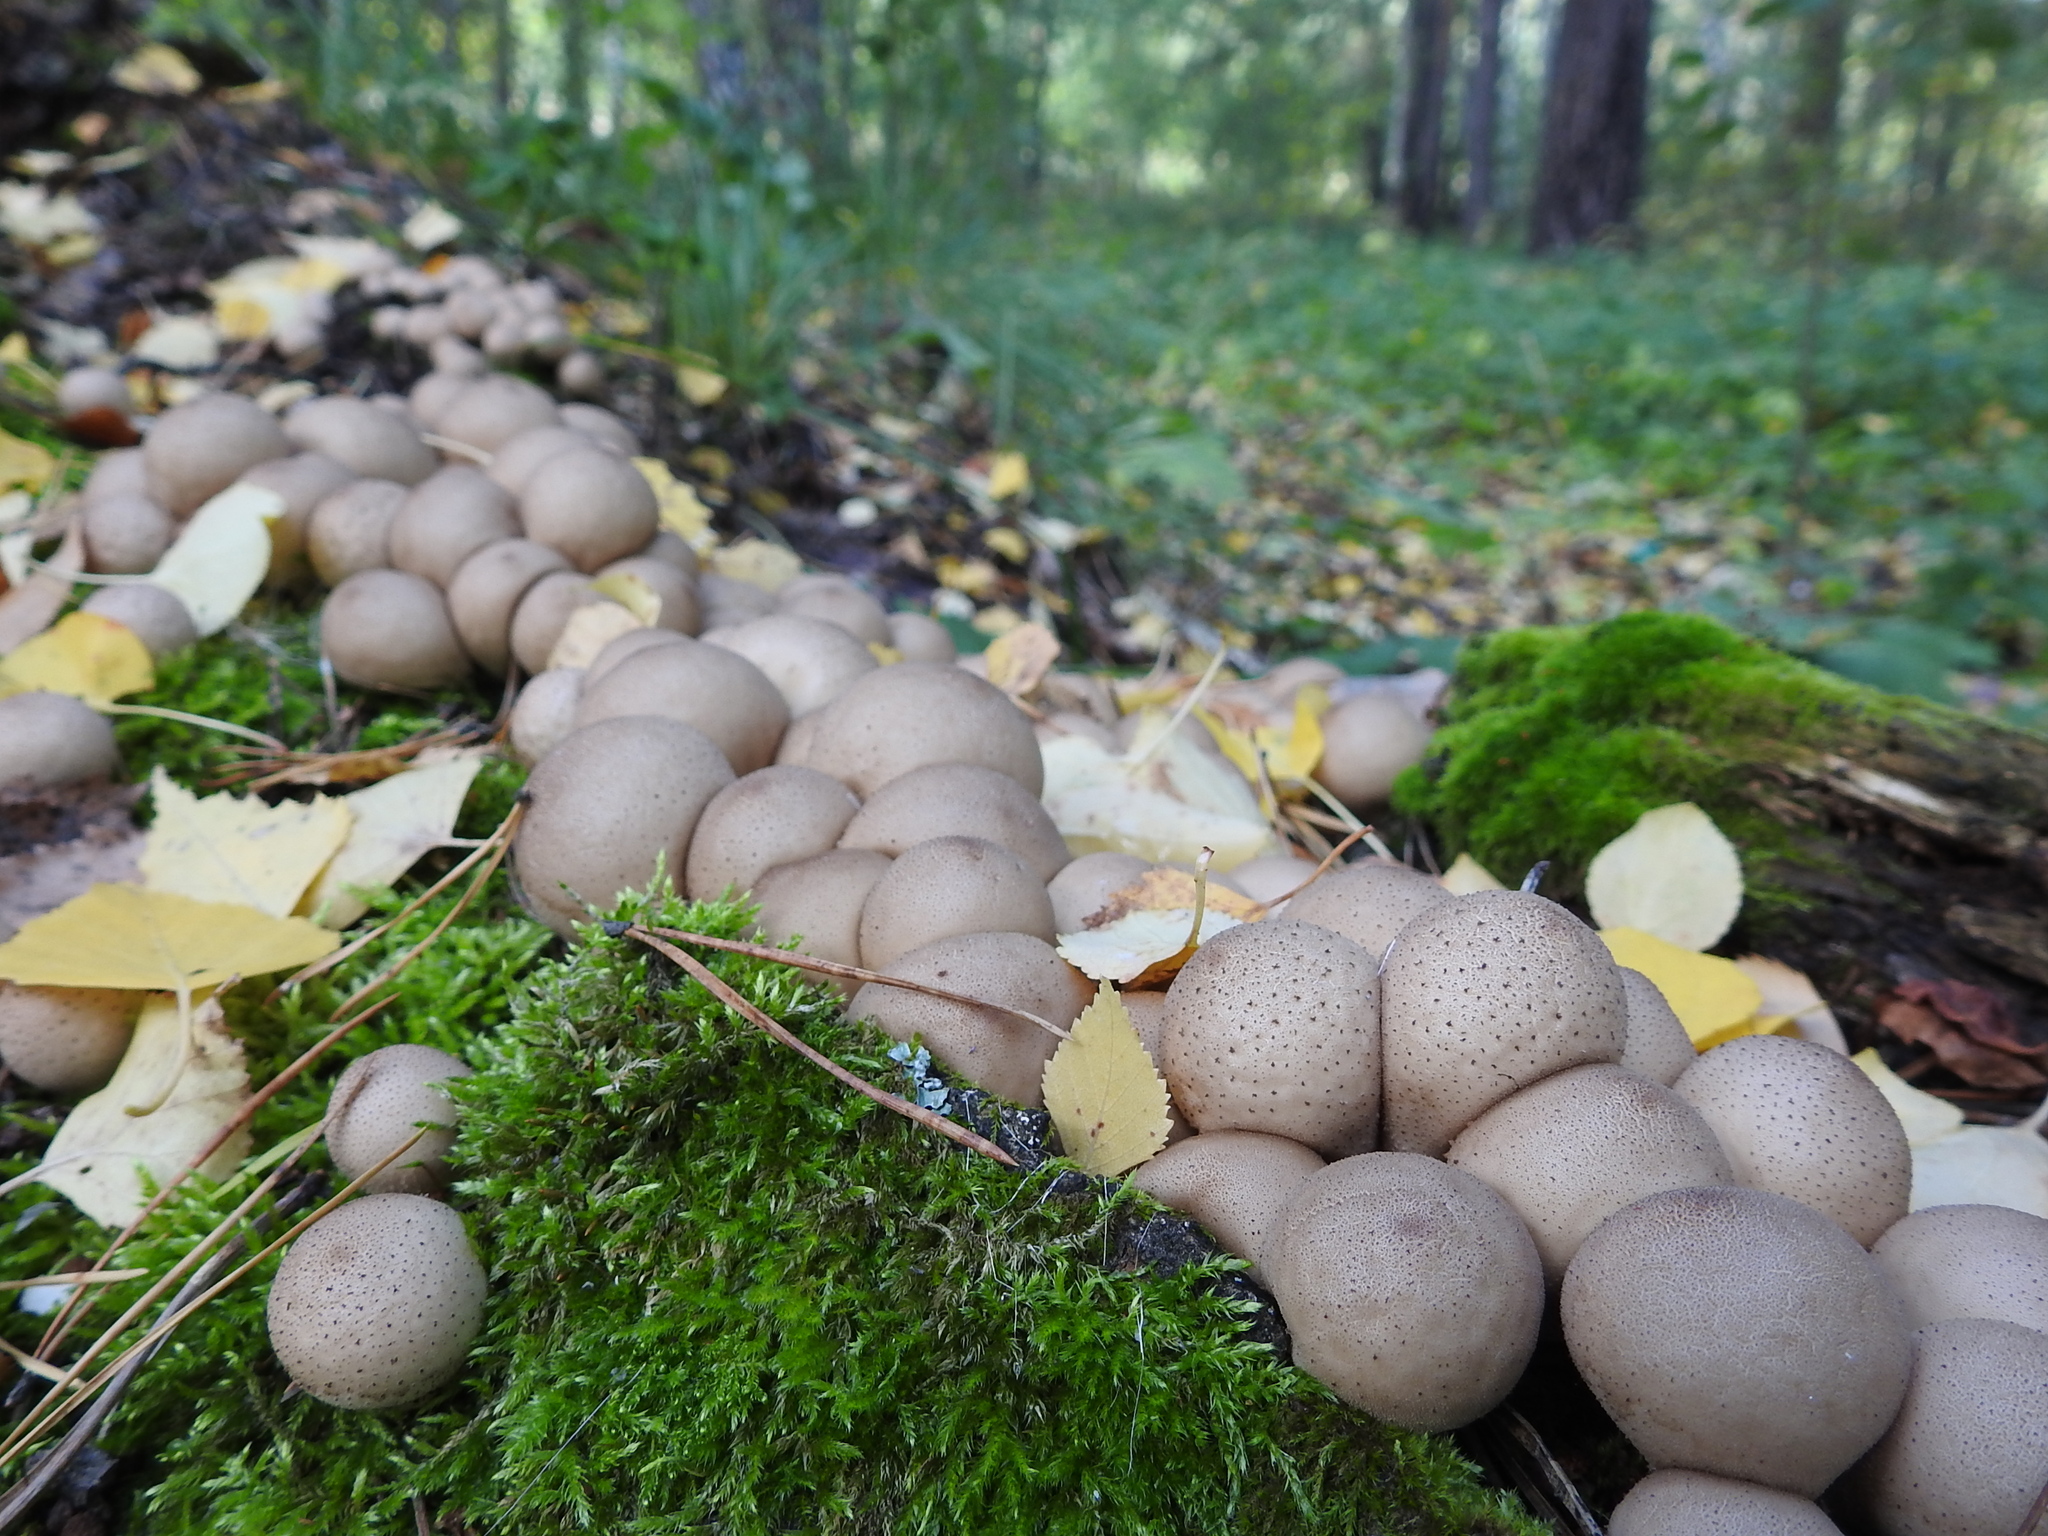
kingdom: Fungi
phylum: Basidiomycota
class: Agaricomycetes
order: Agaricales
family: Lycoperdaceae
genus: Apioperdon
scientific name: Apioperdon pyriforme
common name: Pear-shaped puffball
